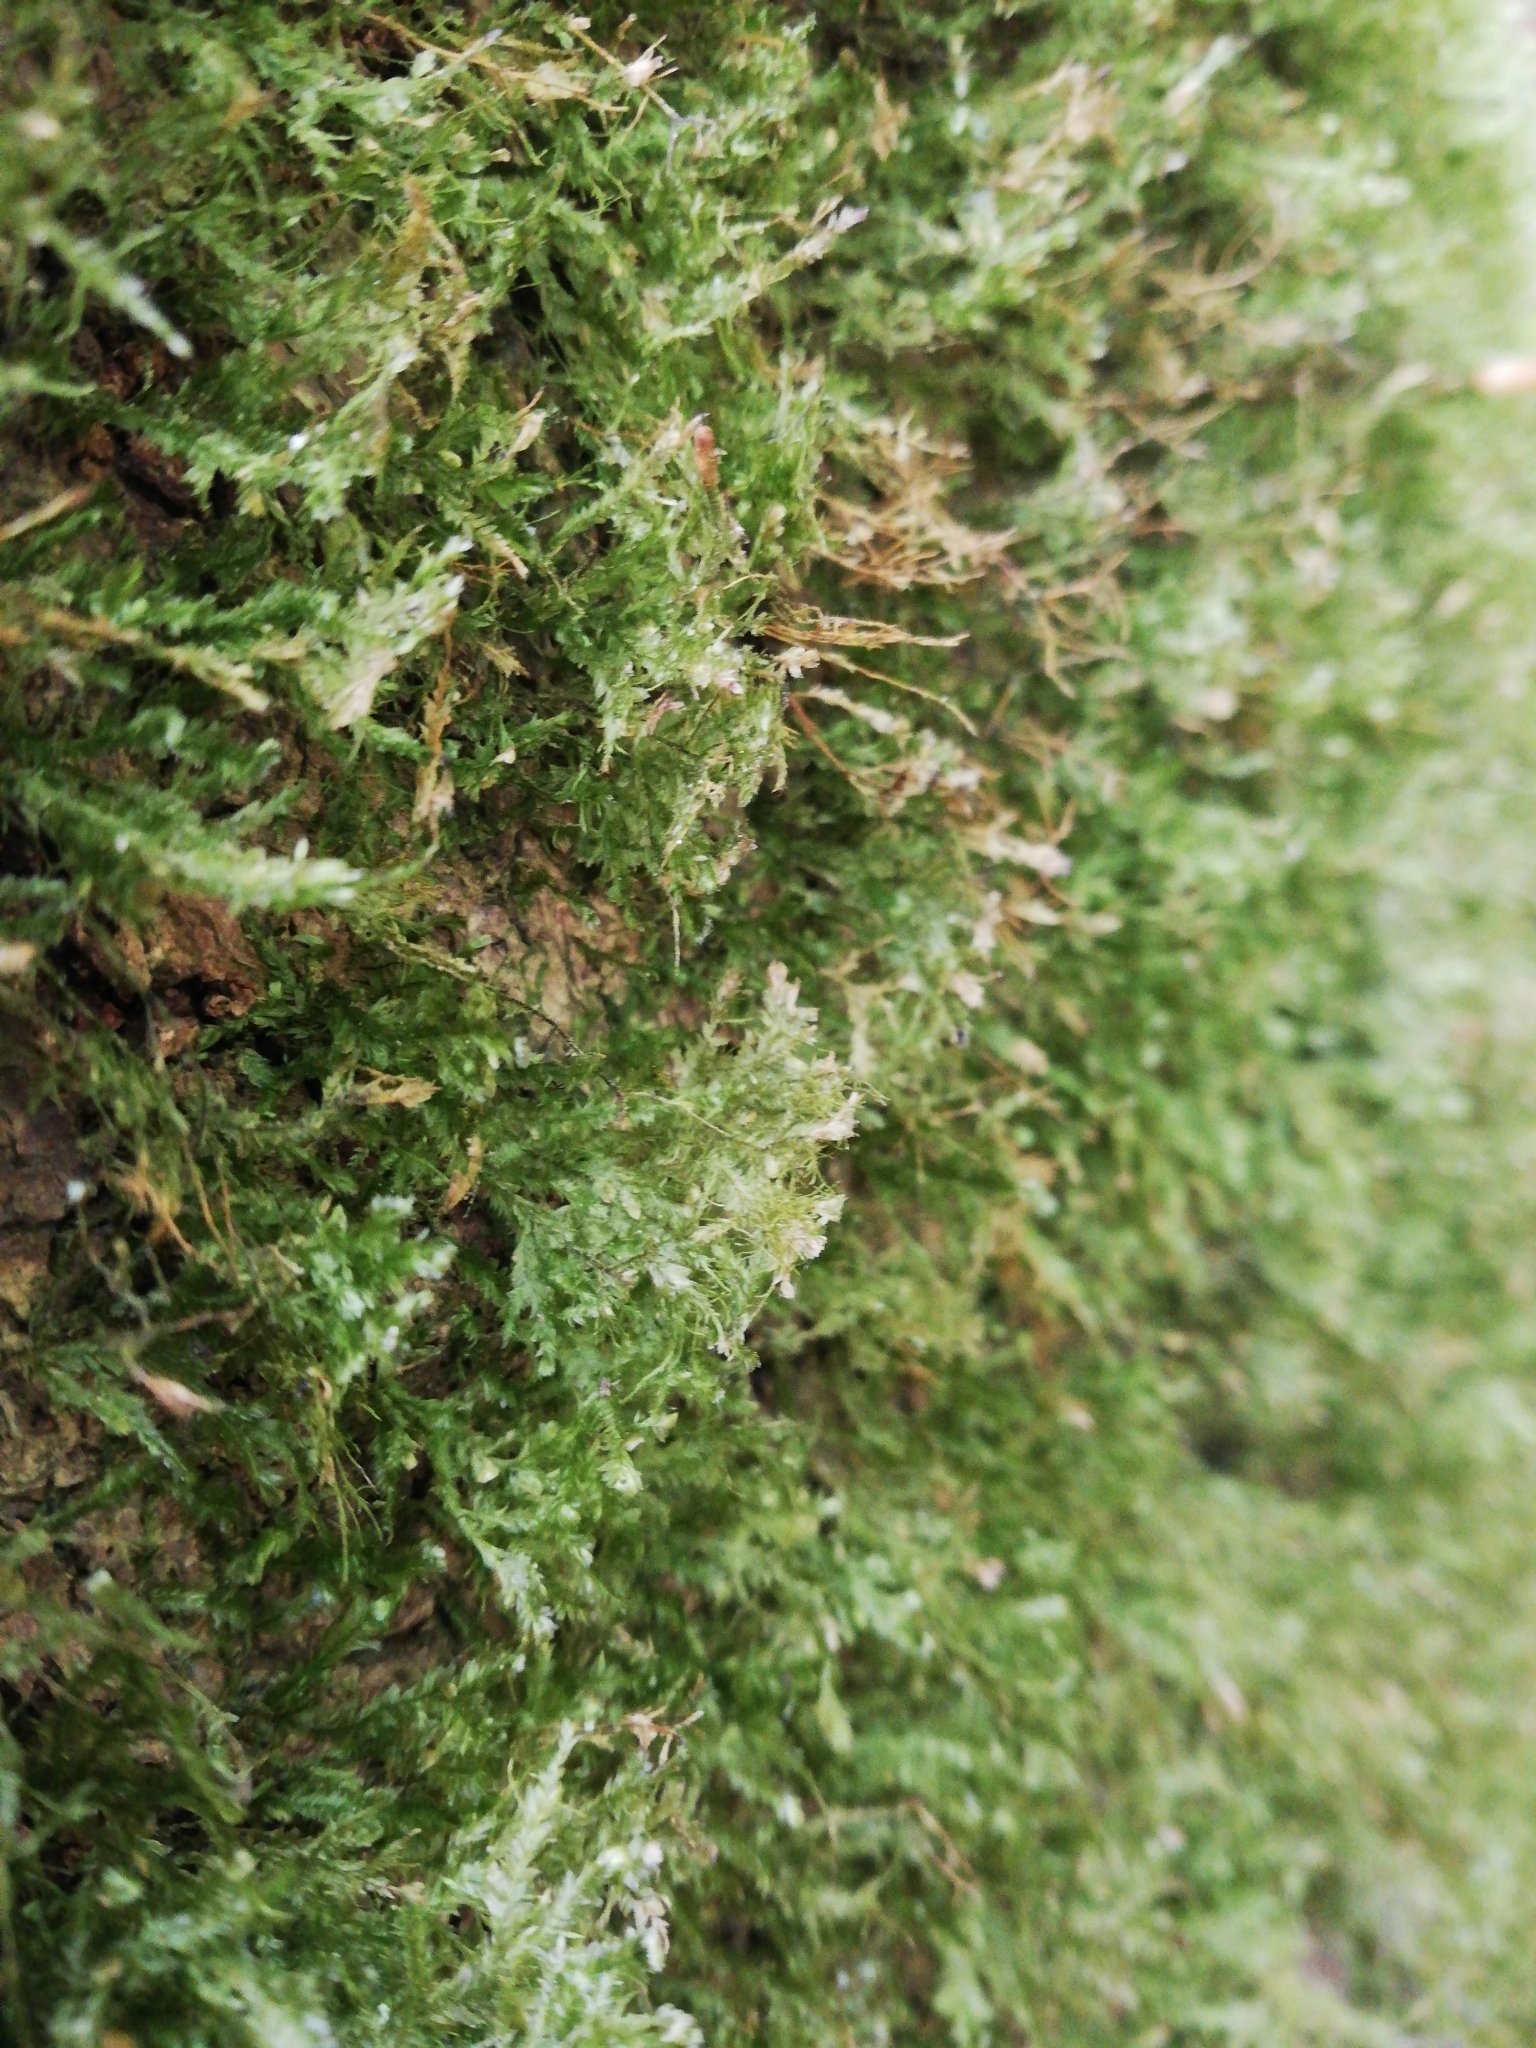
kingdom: Plantae
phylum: Bryophyta
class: Bryopsida
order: Hypnales
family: Neckeraceae
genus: Alleniella
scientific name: Alleniella complanata
